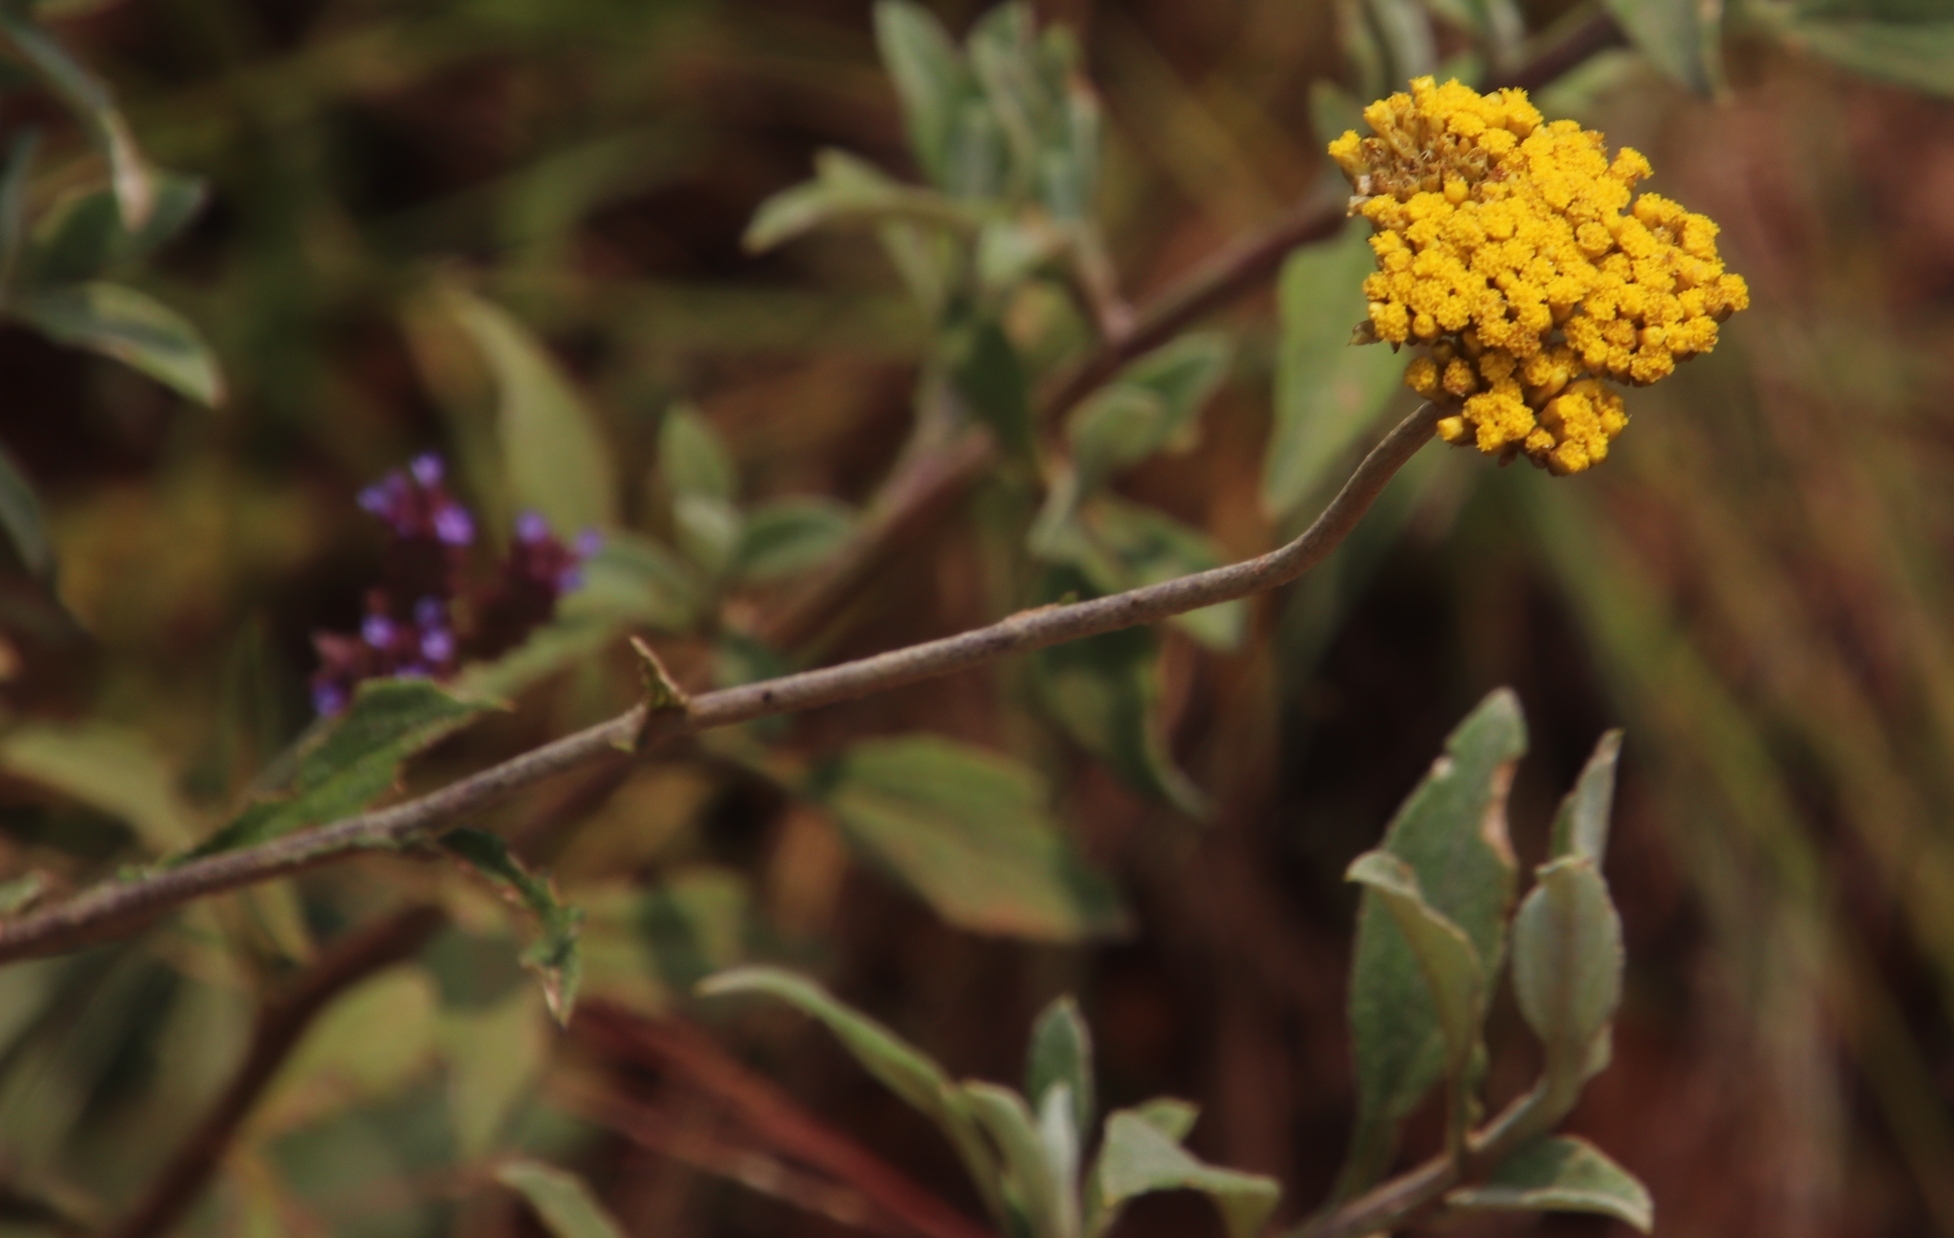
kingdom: Plantae
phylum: Tracheophyta
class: Magnoliopsida
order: Asterales
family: Asteraceae
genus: Helichrysum
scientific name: Helichrysum odoratissimum
